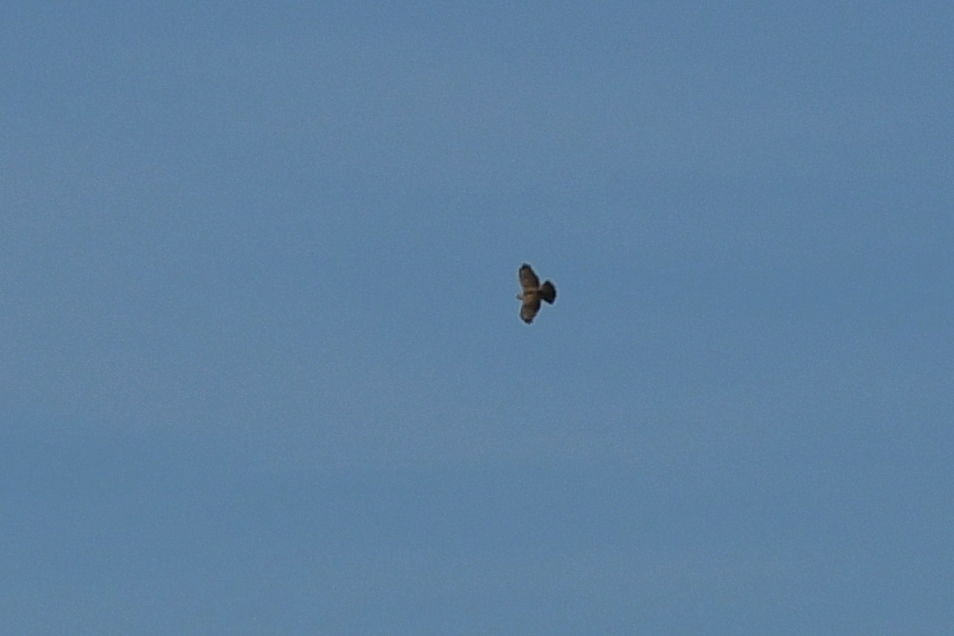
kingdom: Animalia
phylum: Chordata
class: Aves
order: Accipitriformes
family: Accipitridae
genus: Buteo
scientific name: Buteo buteo
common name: Common buzzard
